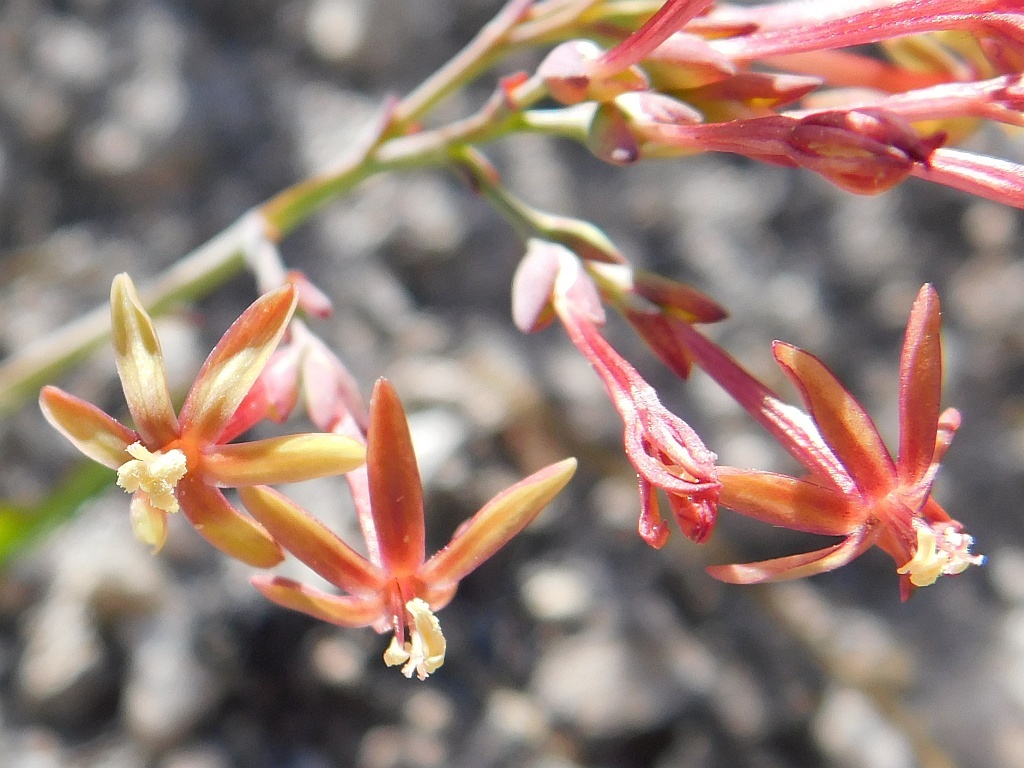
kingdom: Plantae
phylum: Tracheophyta
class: Liliopsida
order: Asparagales
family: Iridaceae
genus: Codonorhiza
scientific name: Codonorhiza micrantha
